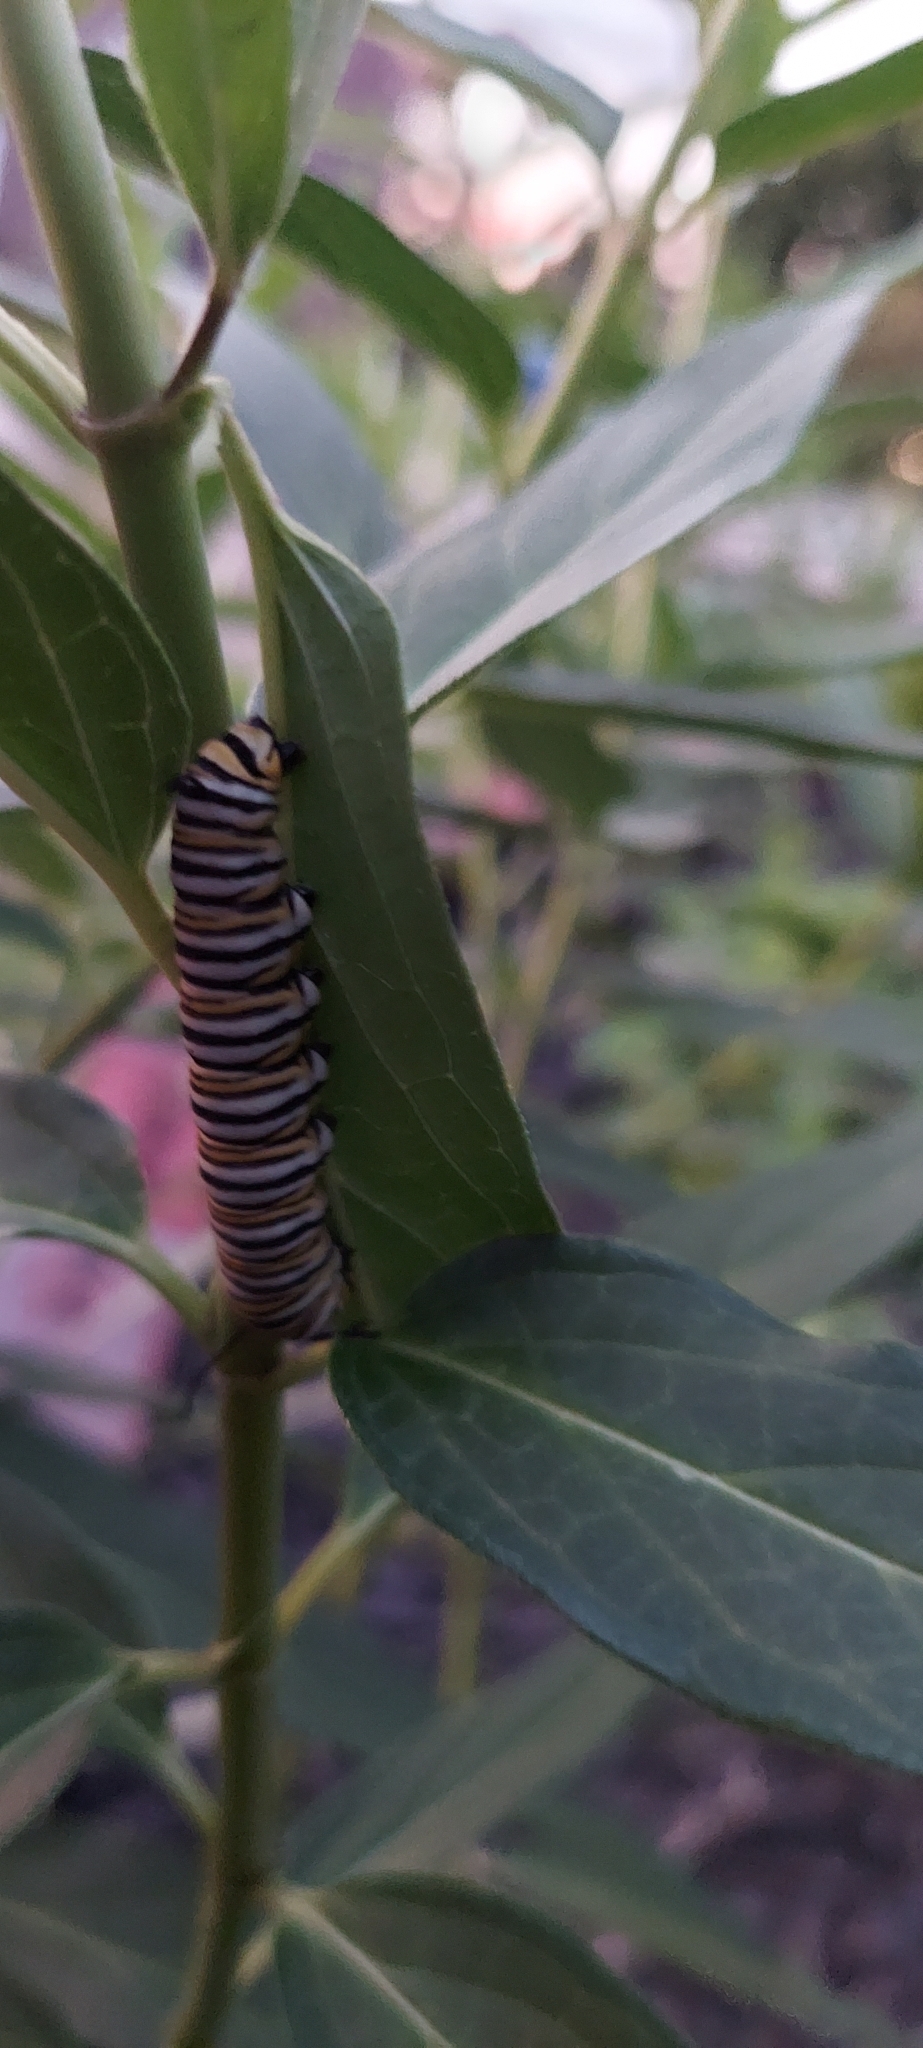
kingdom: Animalia
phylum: Arthropoda
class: Insecta
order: Lepidoptera
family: Nymphalidae
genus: Danaus
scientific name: Danaus plexippus
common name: Monarch
